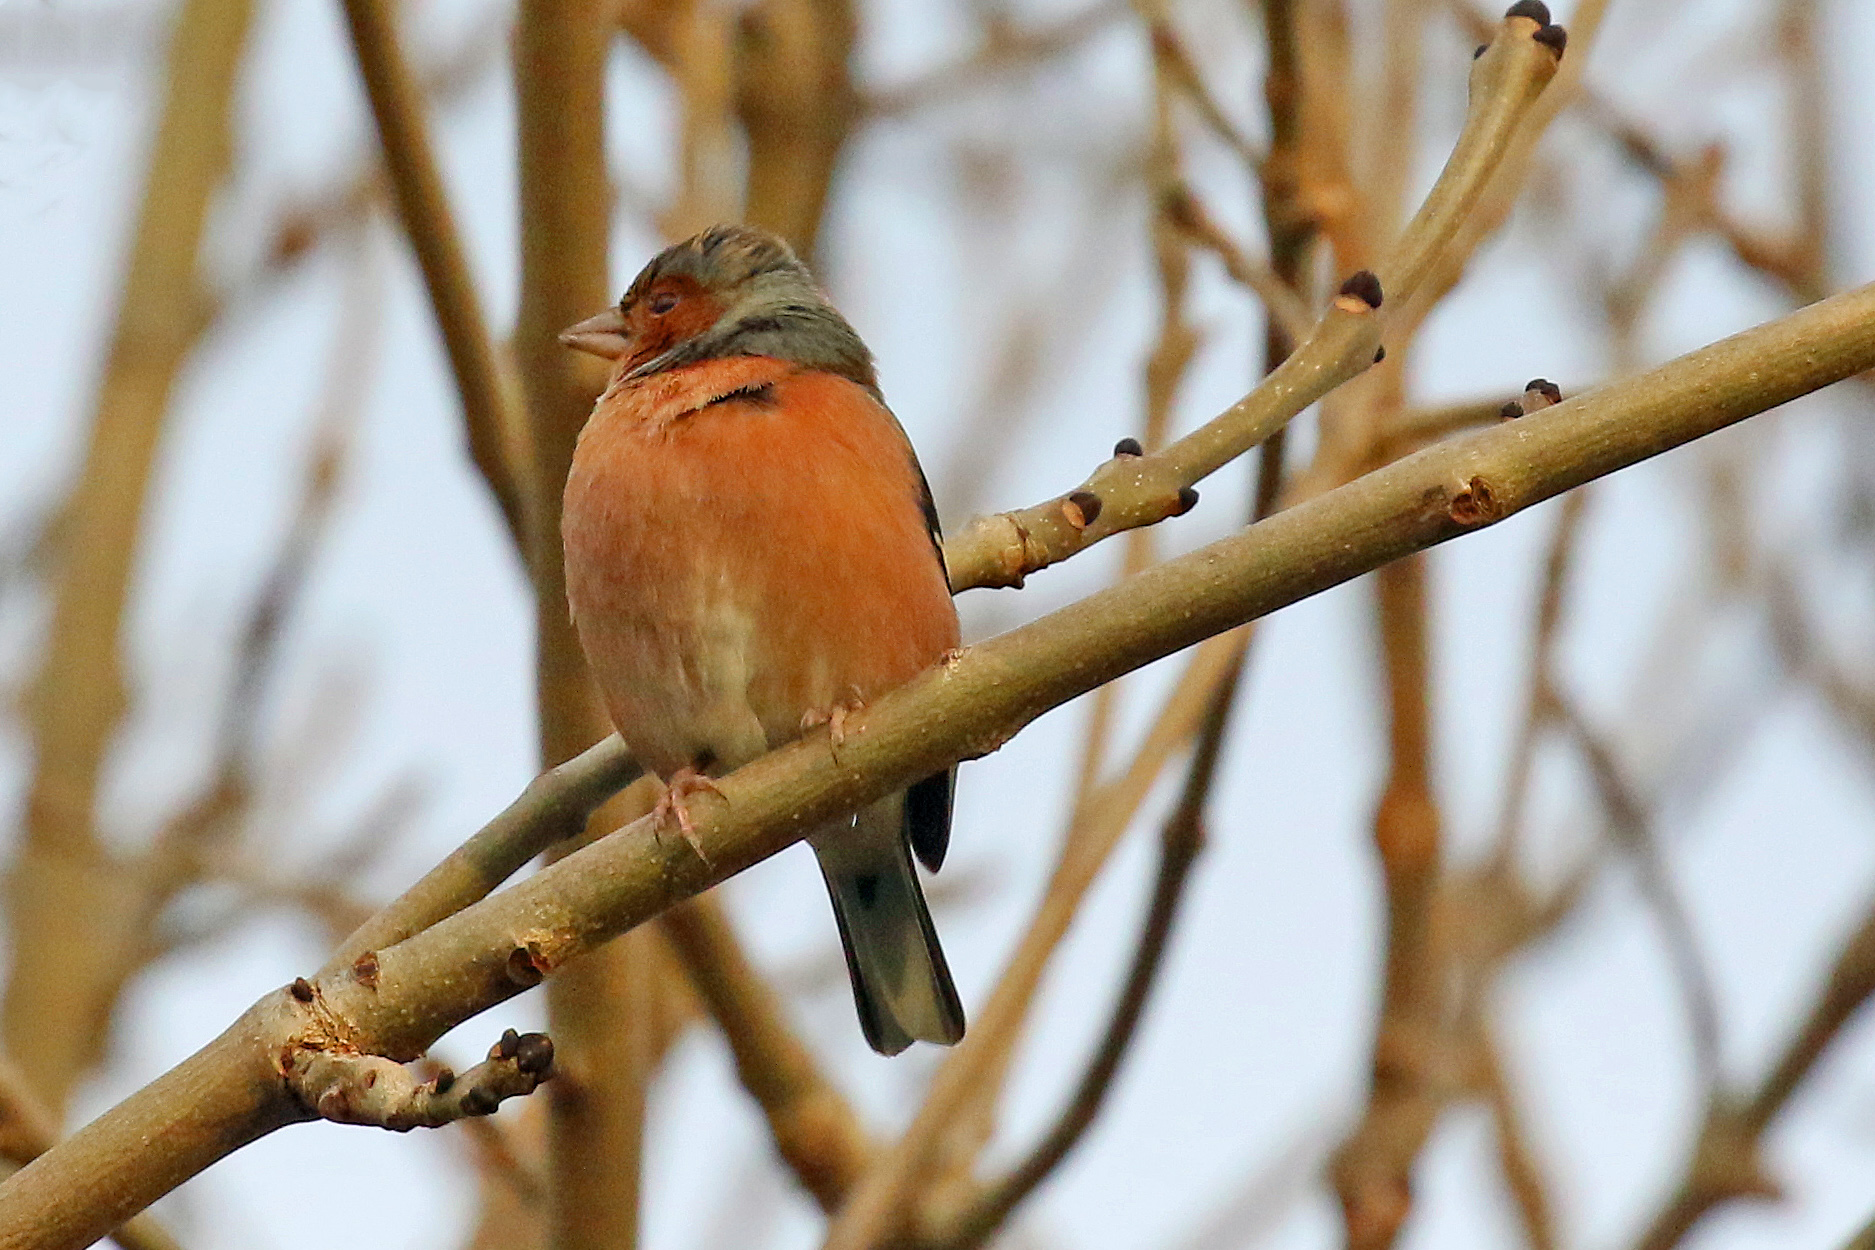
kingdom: Animalia
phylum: Chordata
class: Aves
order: Passeriformes
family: Fringillidae
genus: Fringilla
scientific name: Fringilla coelebs
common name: Common chaffinch
